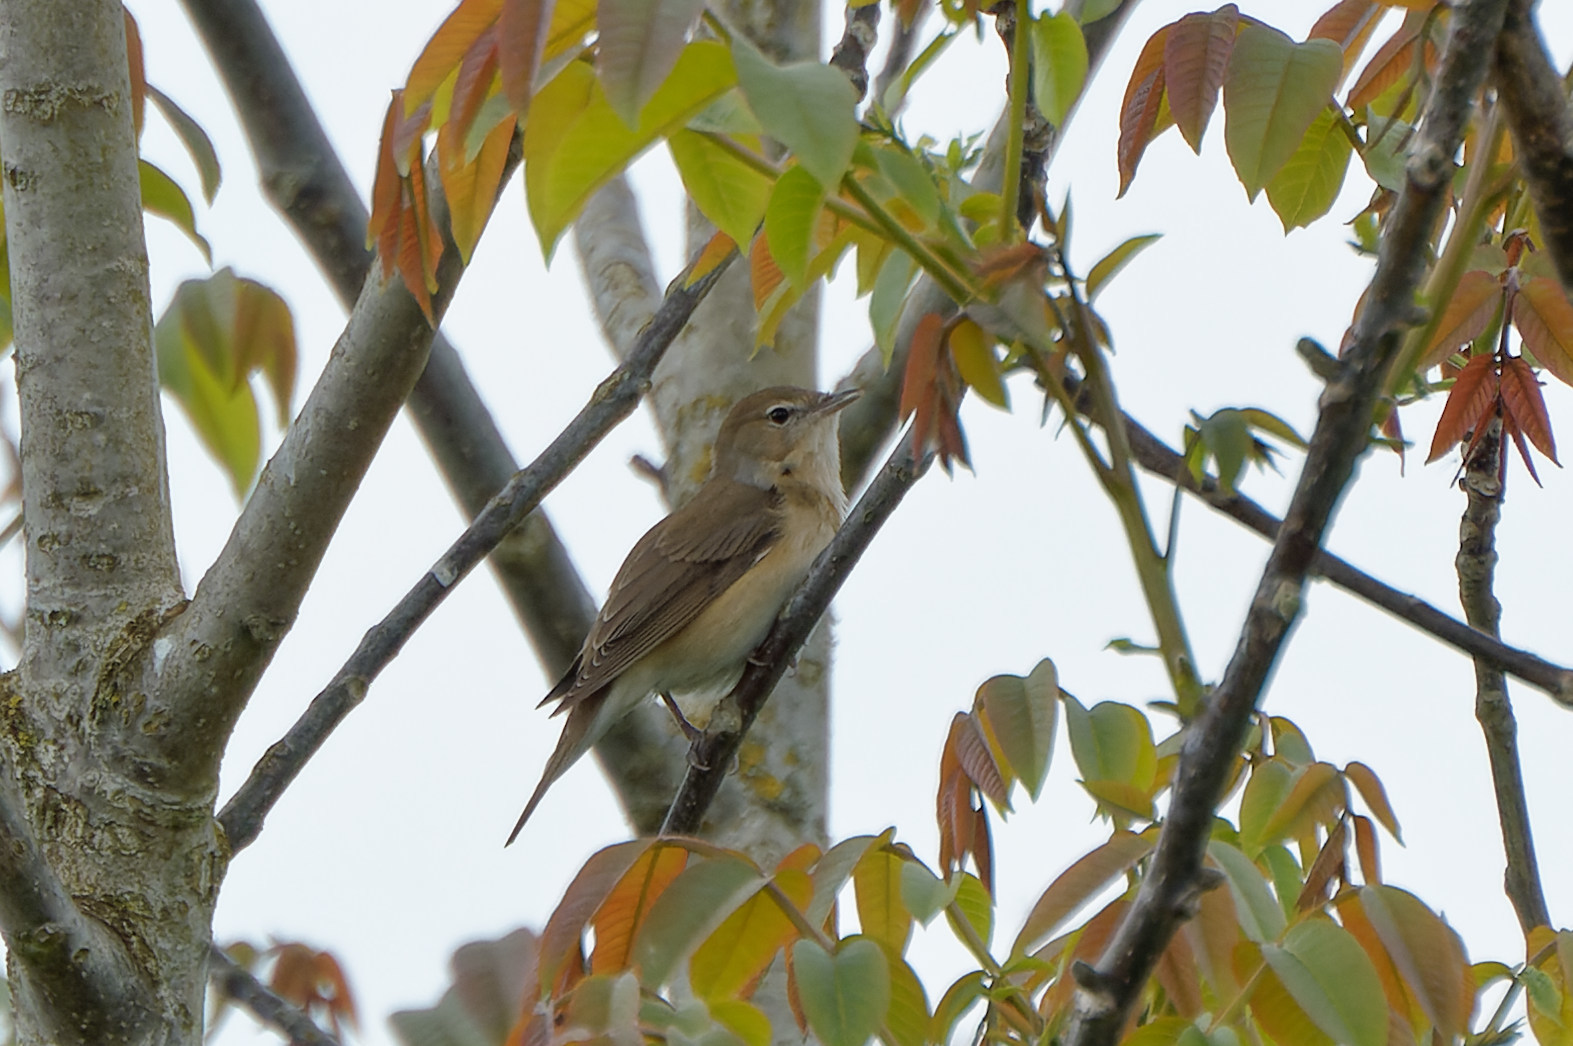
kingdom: Animalia
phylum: Chordata
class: Aves
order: Passeriformes
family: Sylviidae
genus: Sylvia
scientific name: Sylvia borin
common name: Garden warbler
